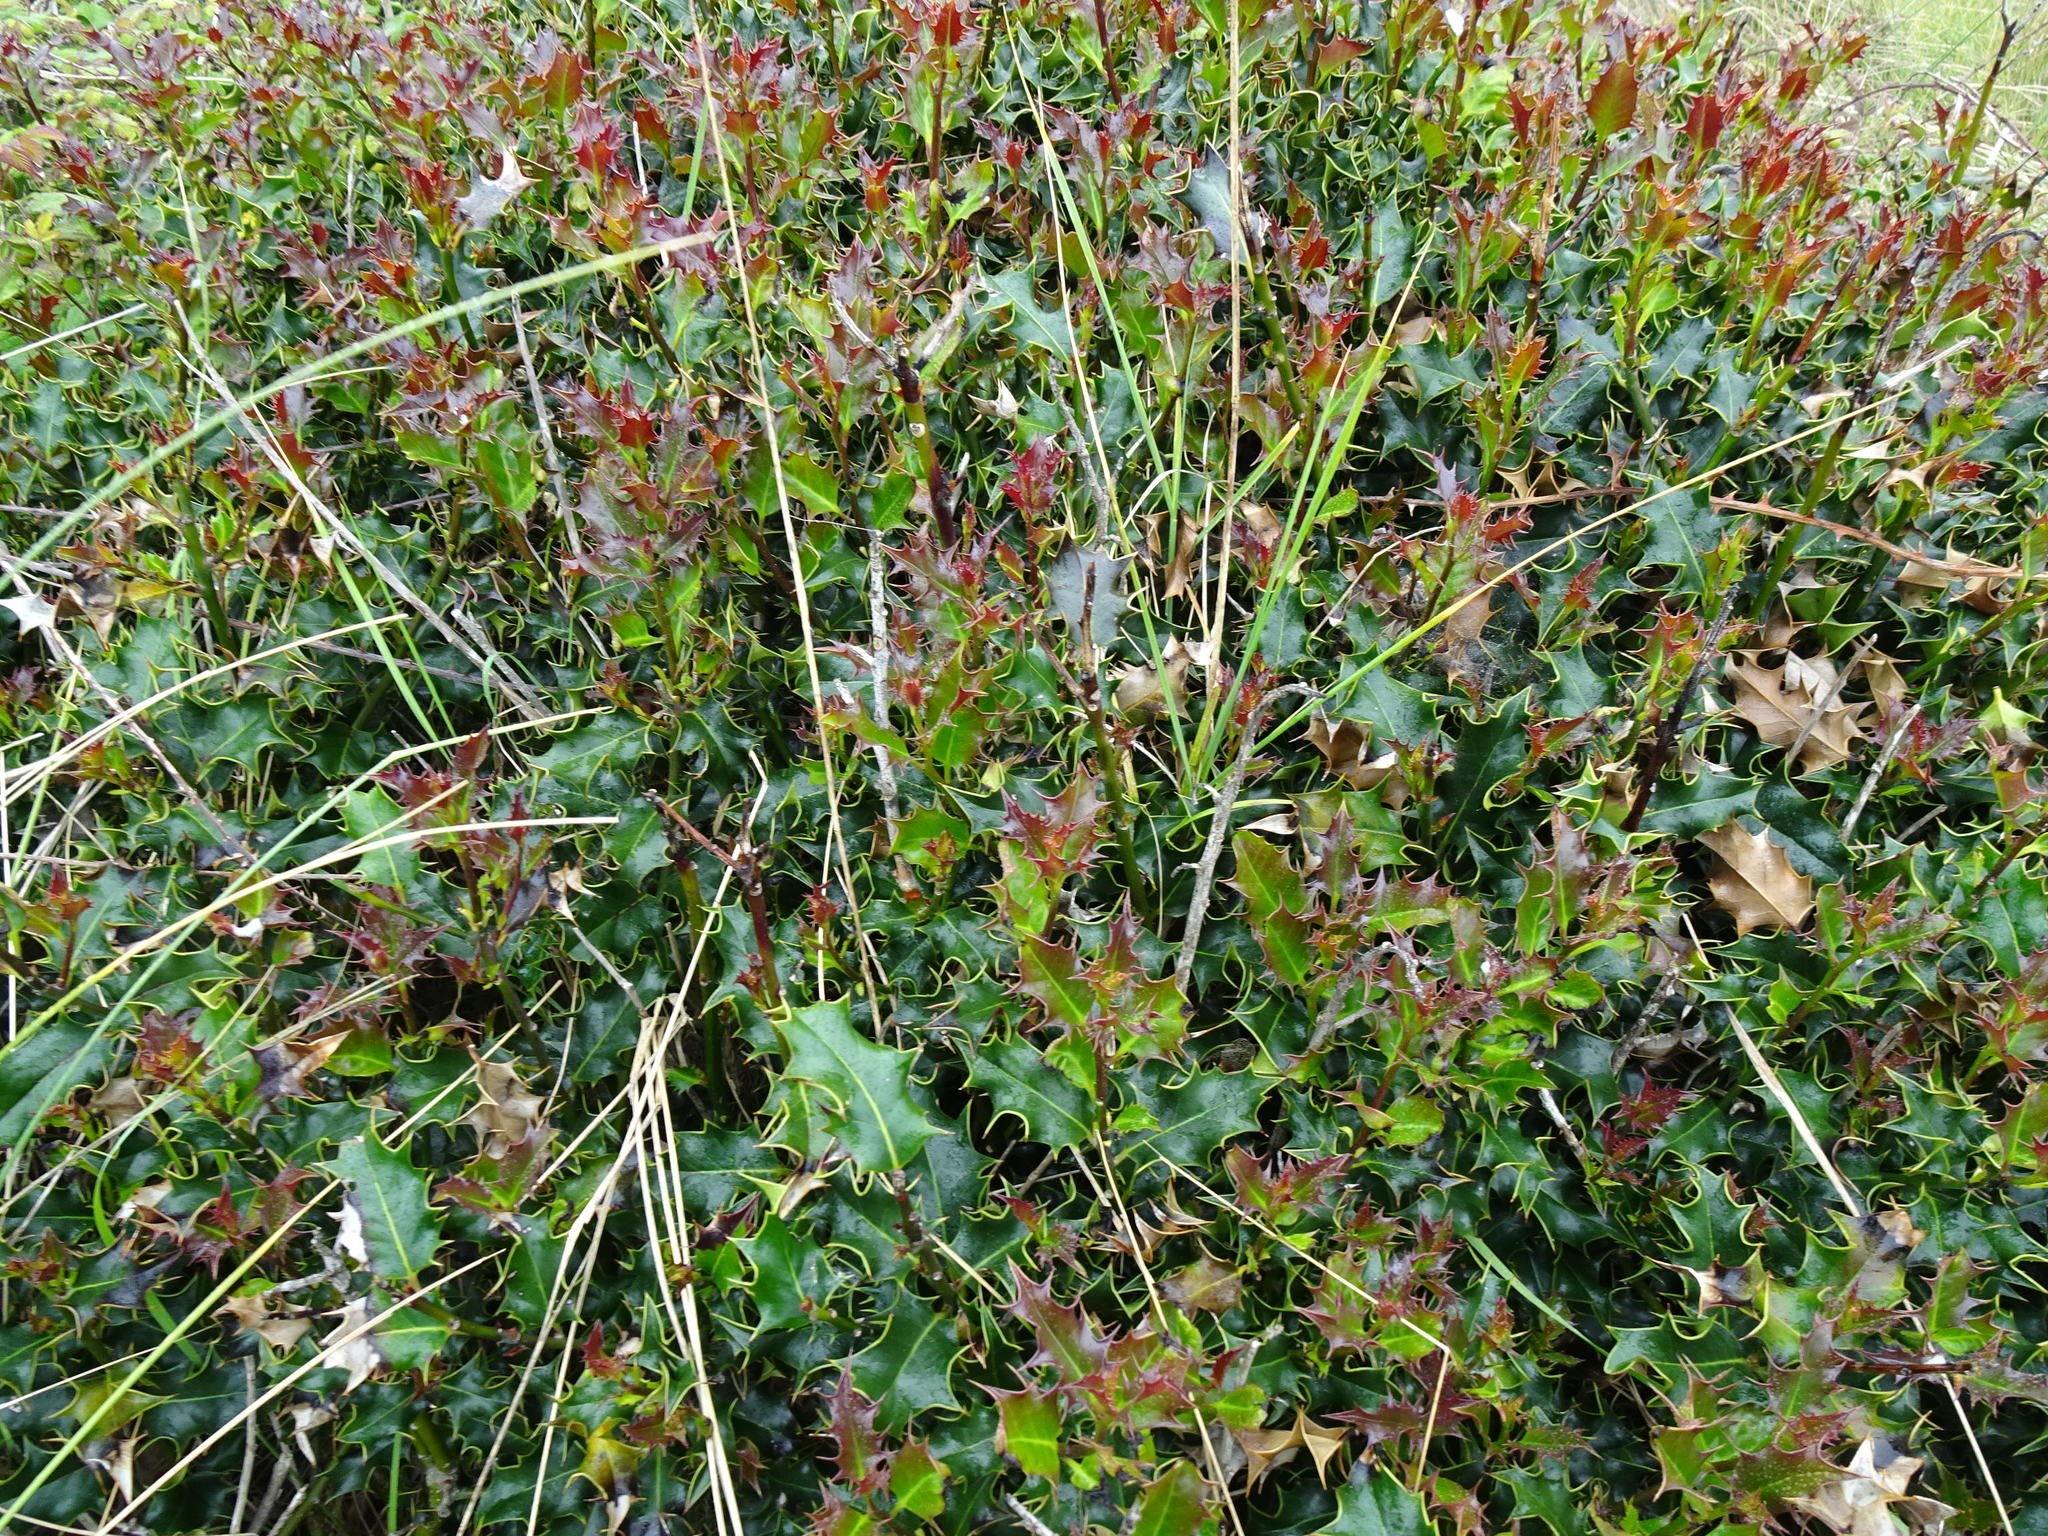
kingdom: Plantae
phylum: Tracheophyta
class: Magnoliopsida
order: Aquifoliales
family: Aquifoliaceae
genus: Ilex
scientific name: Ilex aquifolium
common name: English holly
